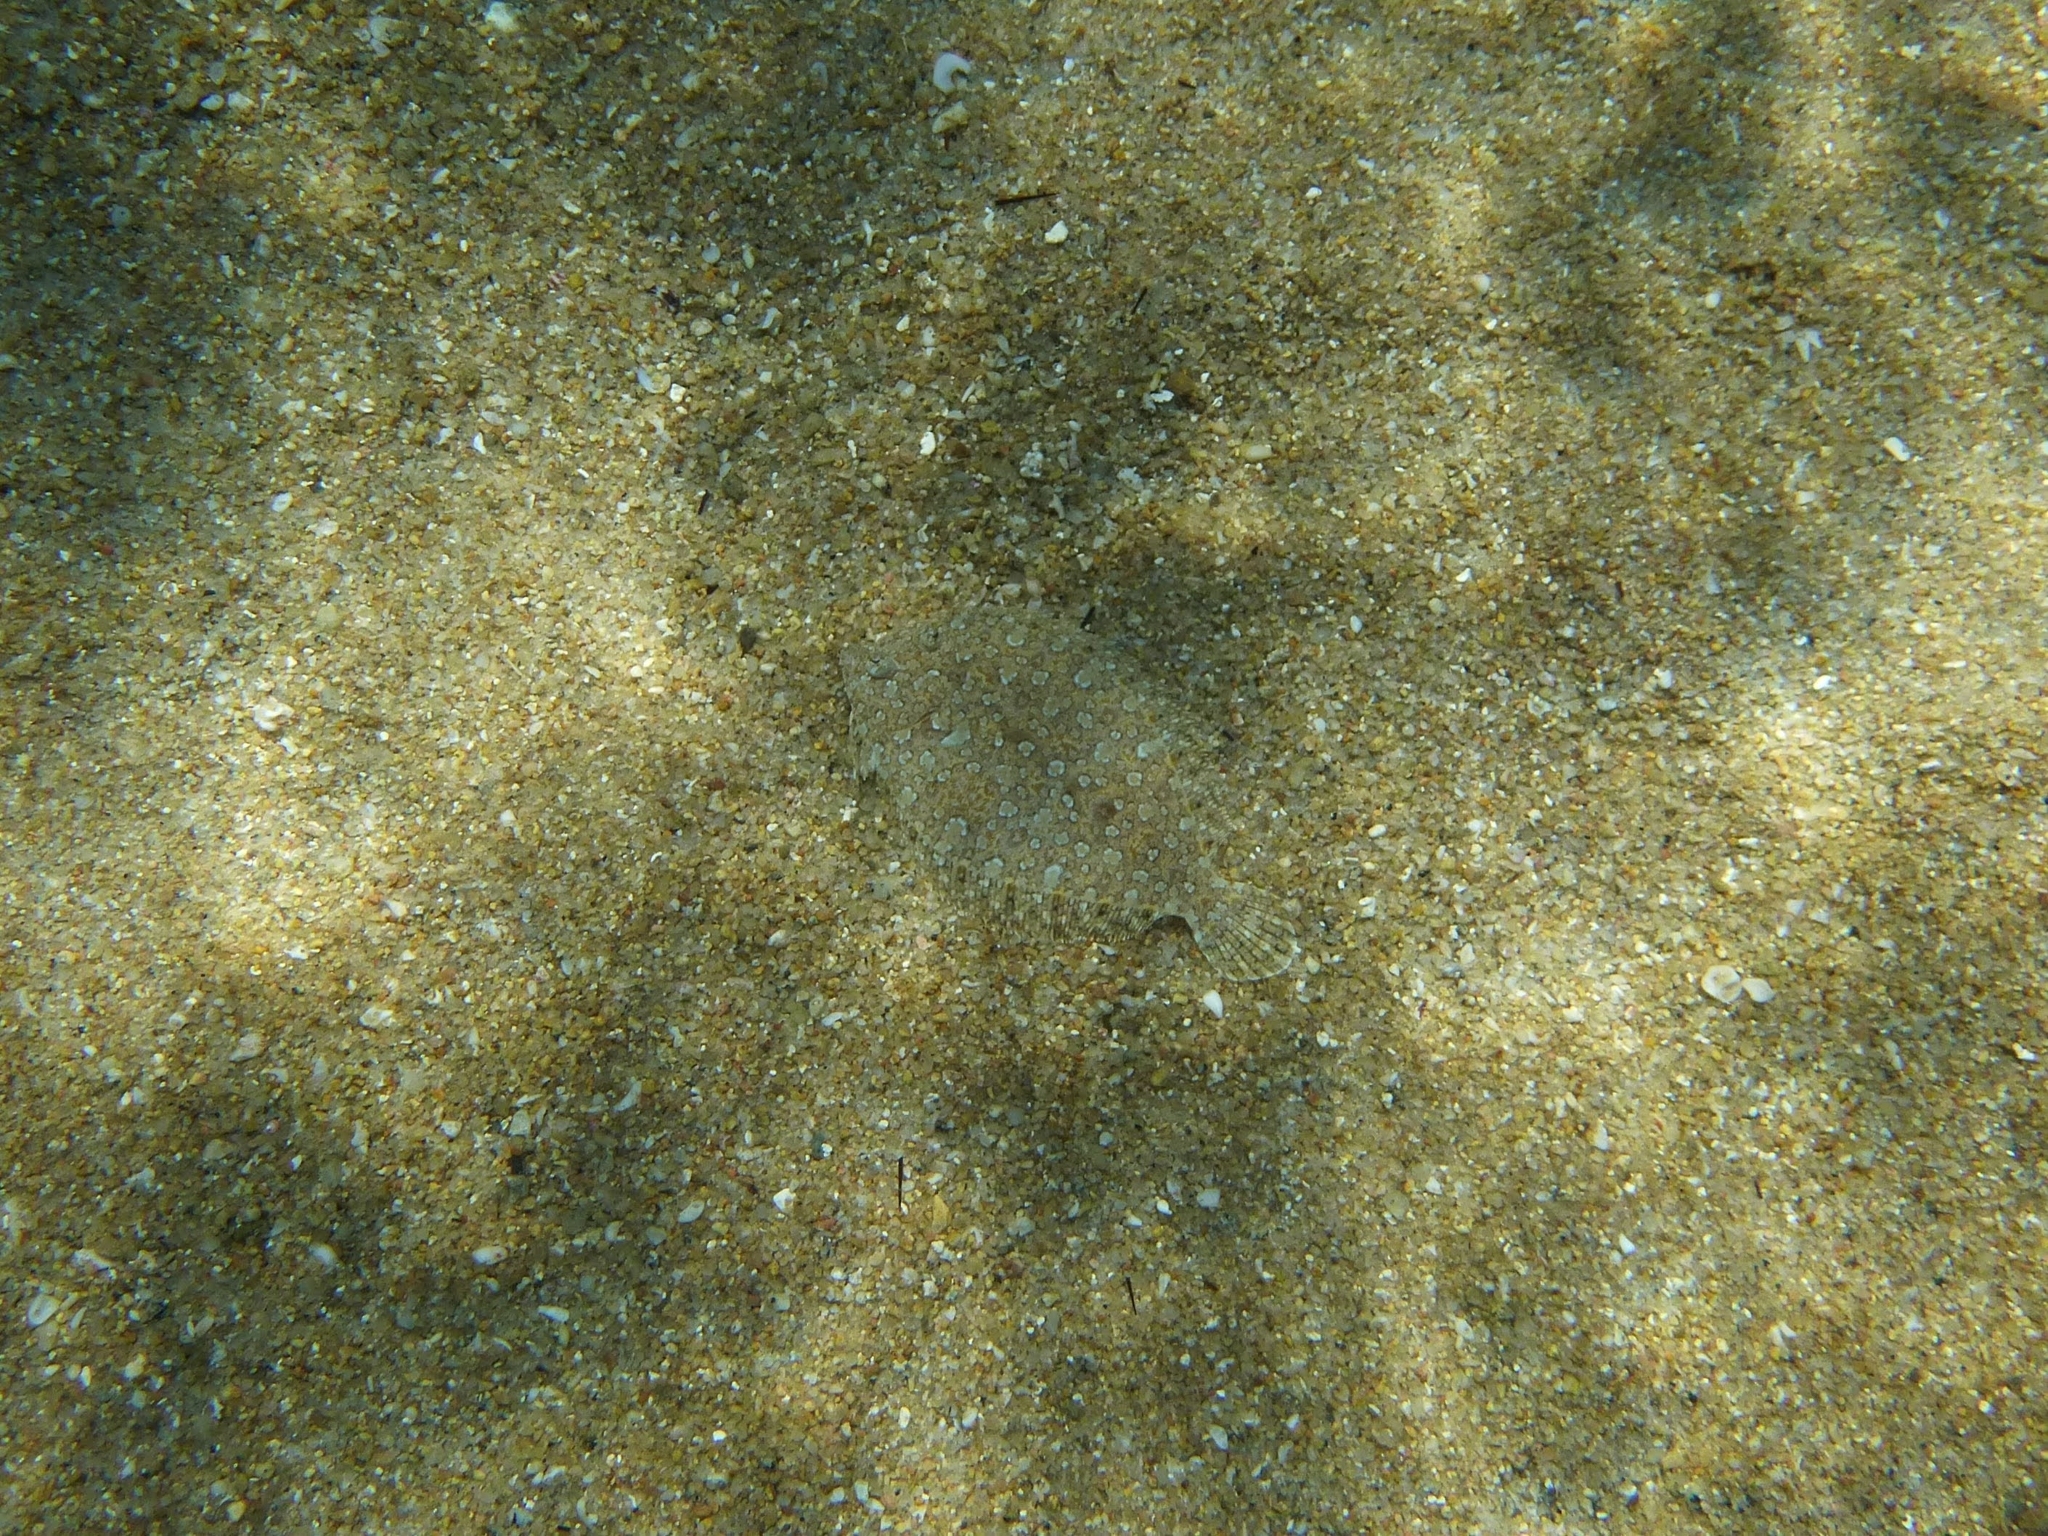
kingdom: Animalia
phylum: Chordata
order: Pleuronectiformes
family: Bothidae
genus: Bothus
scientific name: Bothus podas
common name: Wide-eyed flounder
